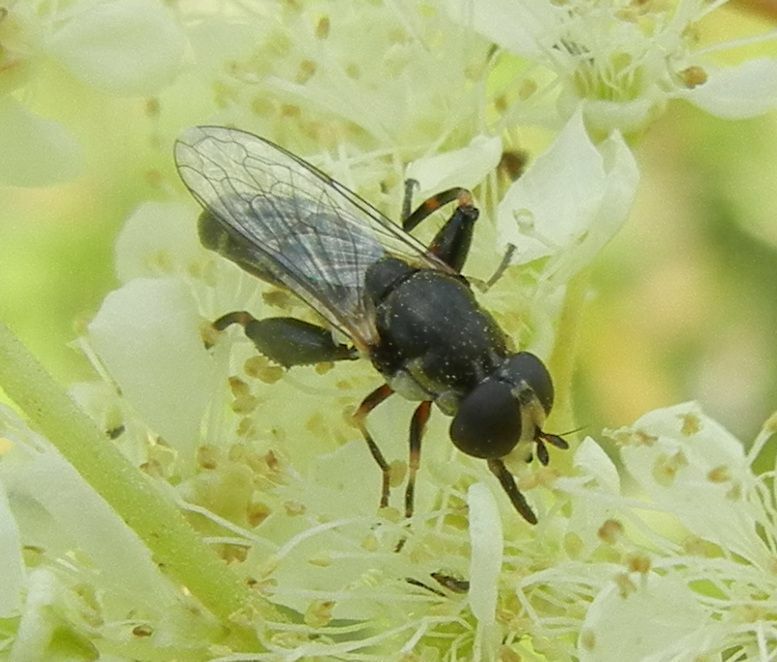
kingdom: Animalia
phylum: Arthropoda
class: Insecta
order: Diptera
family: Syrphidae
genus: Syritta
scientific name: Syritta pipiens
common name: Hover fly
